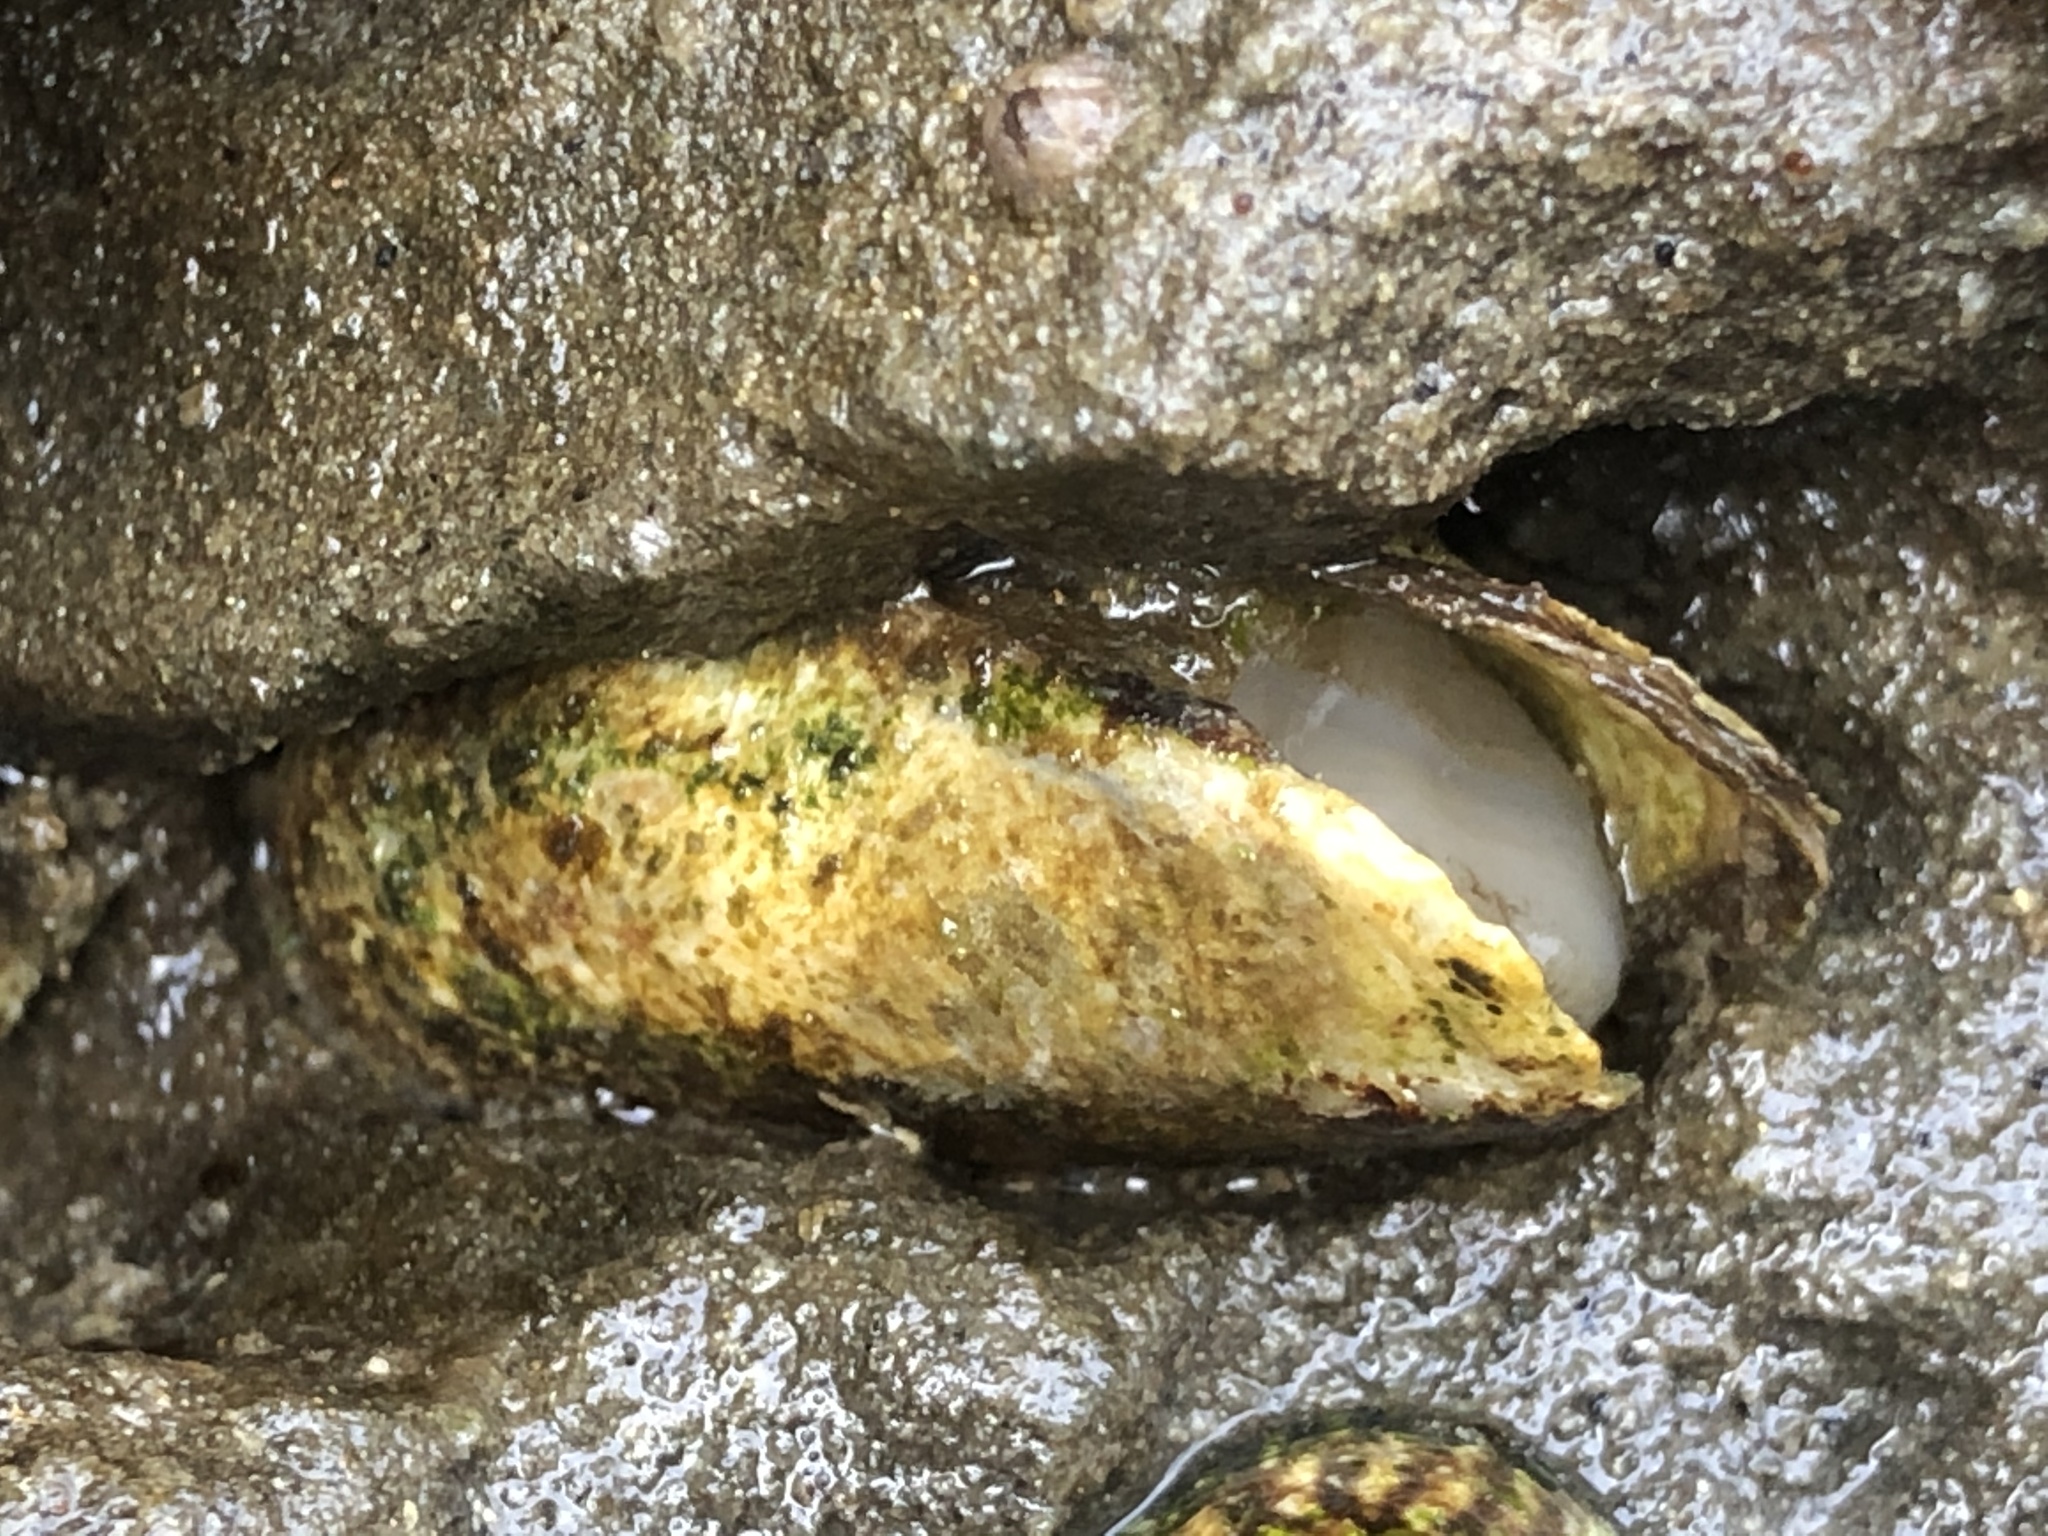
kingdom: Animalia
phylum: Mollusca
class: Bivalvia
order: Myida
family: Pholadidae
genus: Parapholas
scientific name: Parapholas californica
